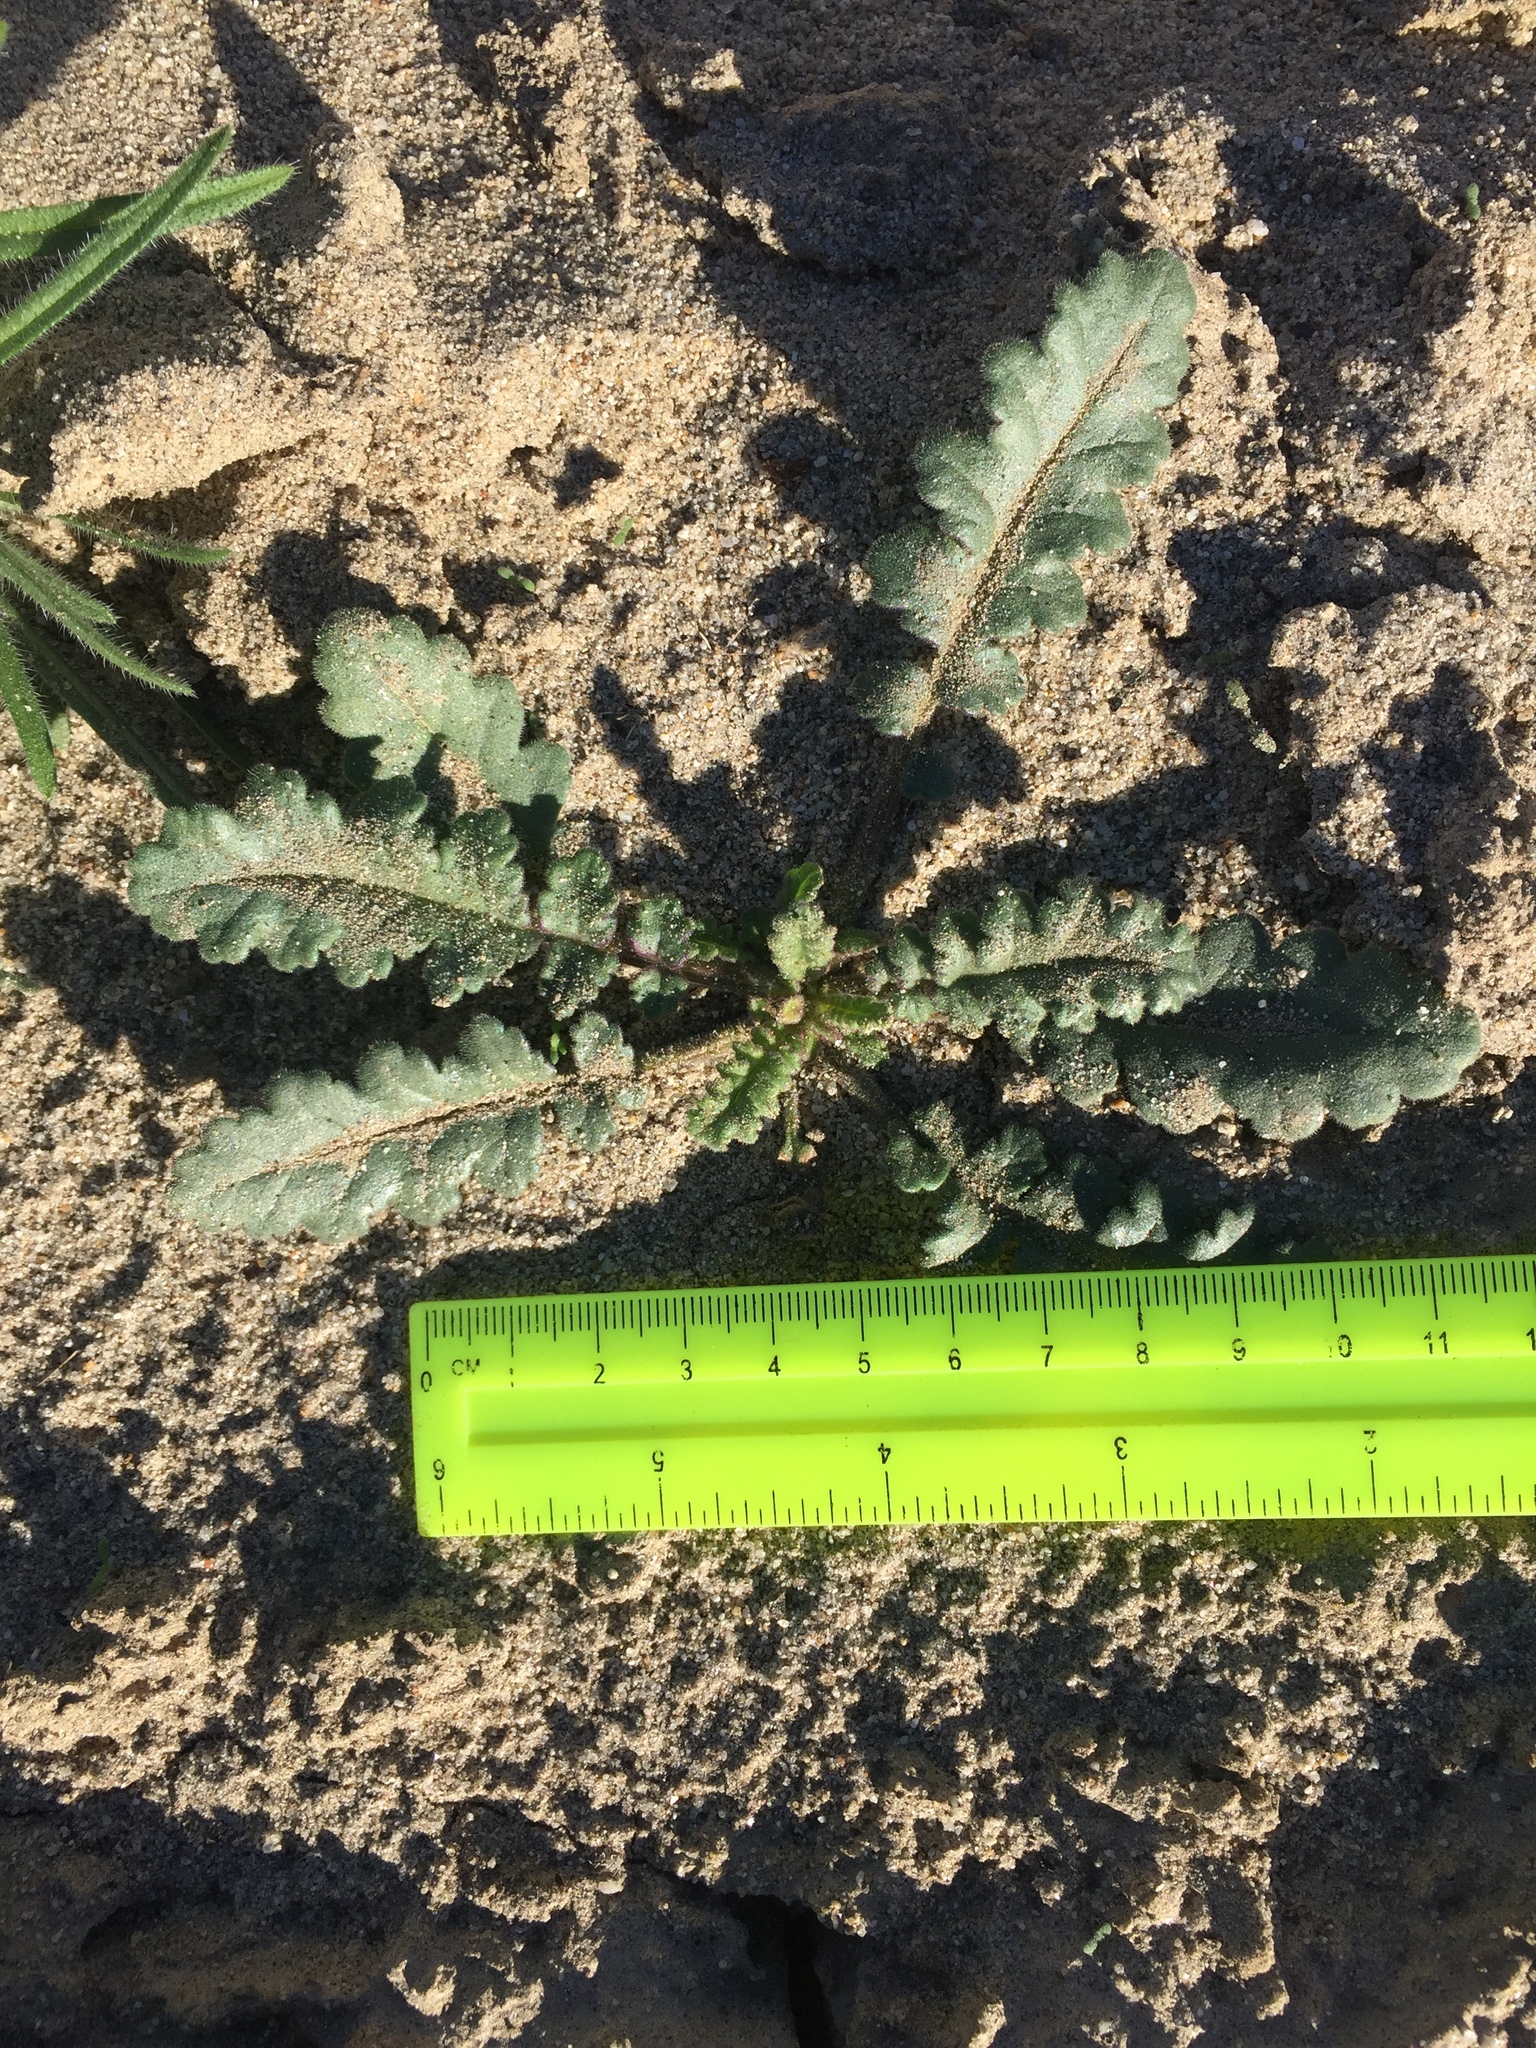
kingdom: Plantae
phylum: Tracheophyta
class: Magnoliopsida
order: Boraginales
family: Hydrophyllaceae
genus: Phacelia
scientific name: Phacelia crenulata
